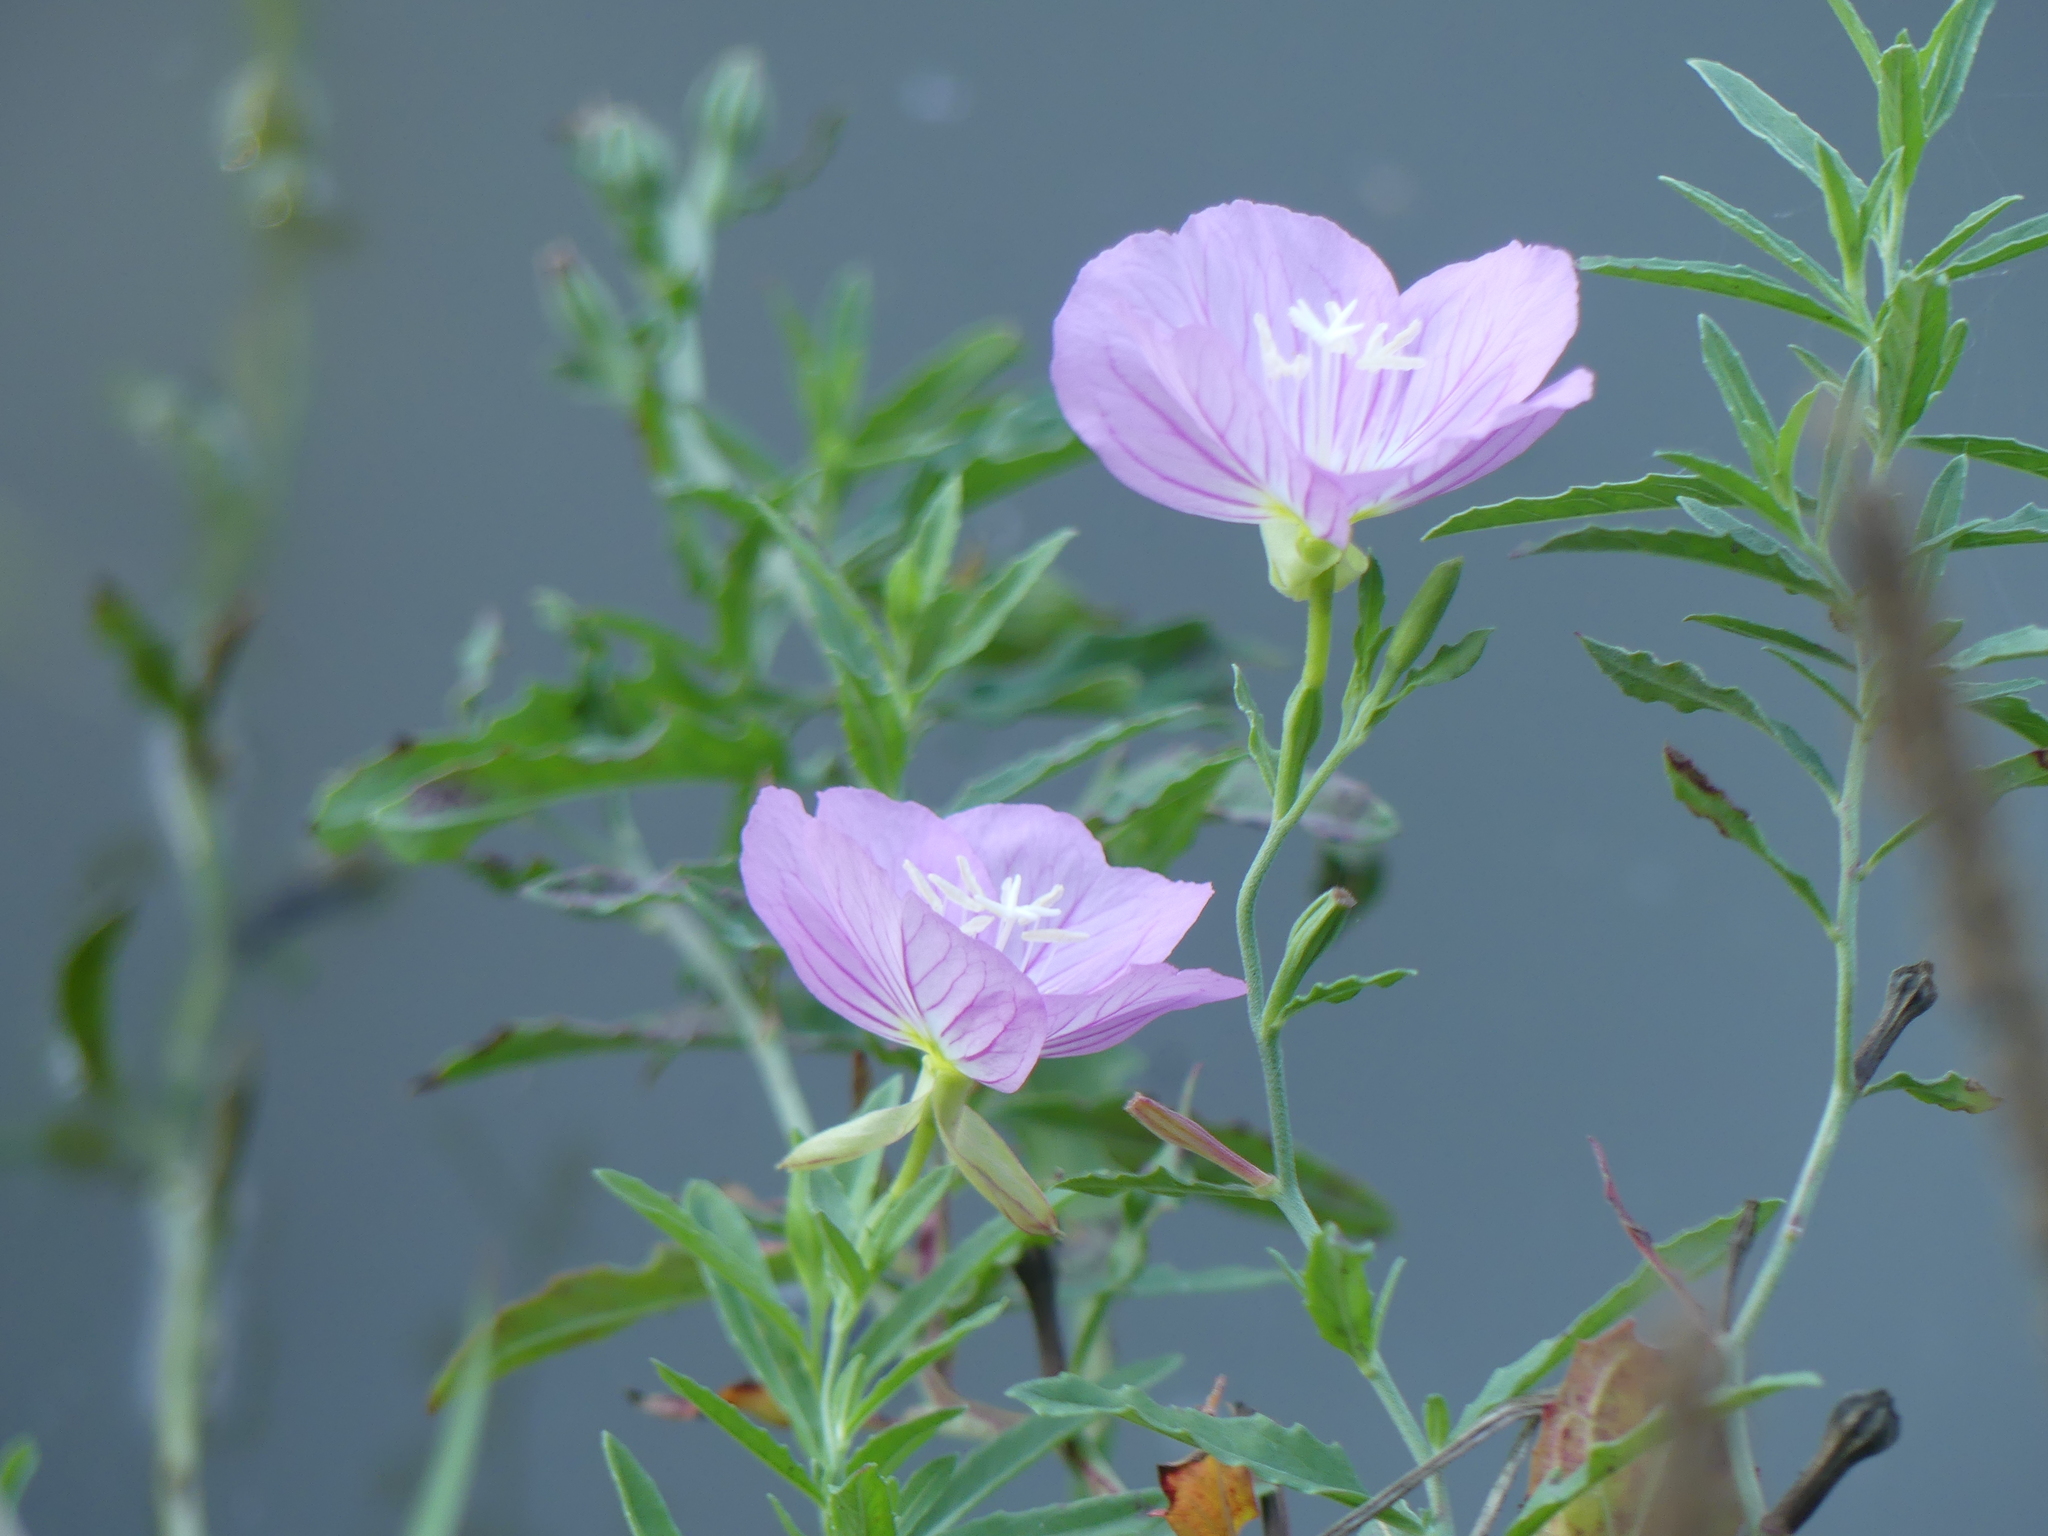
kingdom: Plantae
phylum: Tracheophyta
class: Magnoliopsida
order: Myrtales
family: Onagraceae
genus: Oenothera
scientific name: Oenothera speciosa
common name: White evening-primrose
